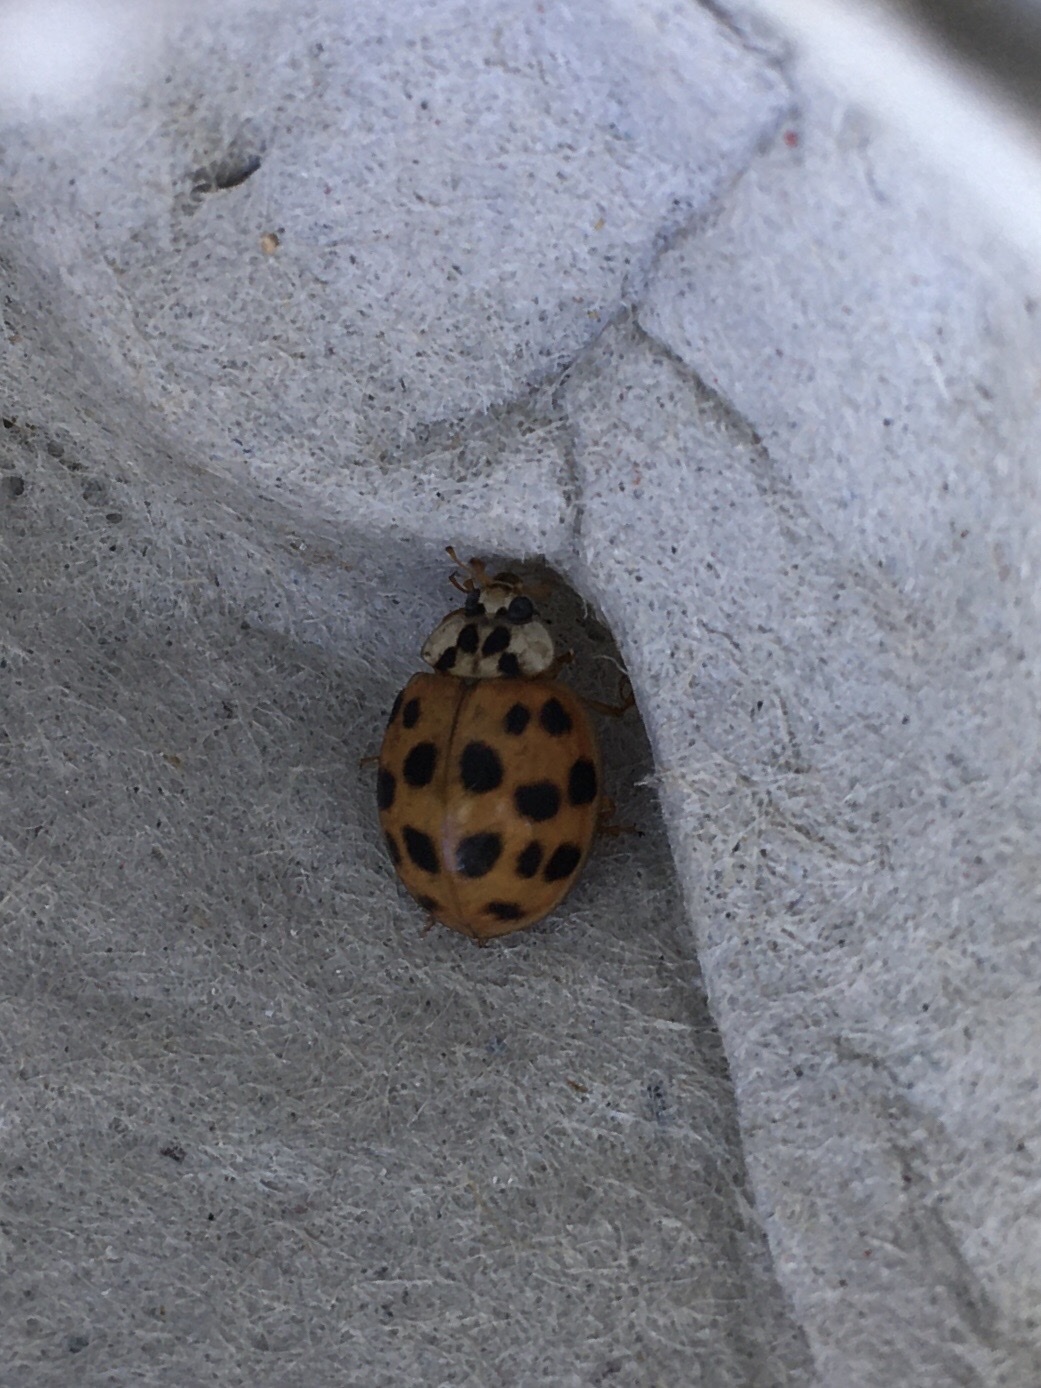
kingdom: Animalia
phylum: Arthropoda
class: Insecta
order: Coleoptera
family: Coccinellidae
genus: Harmonia
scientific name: Harmonia axyridis
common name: Harlequin ladybird
